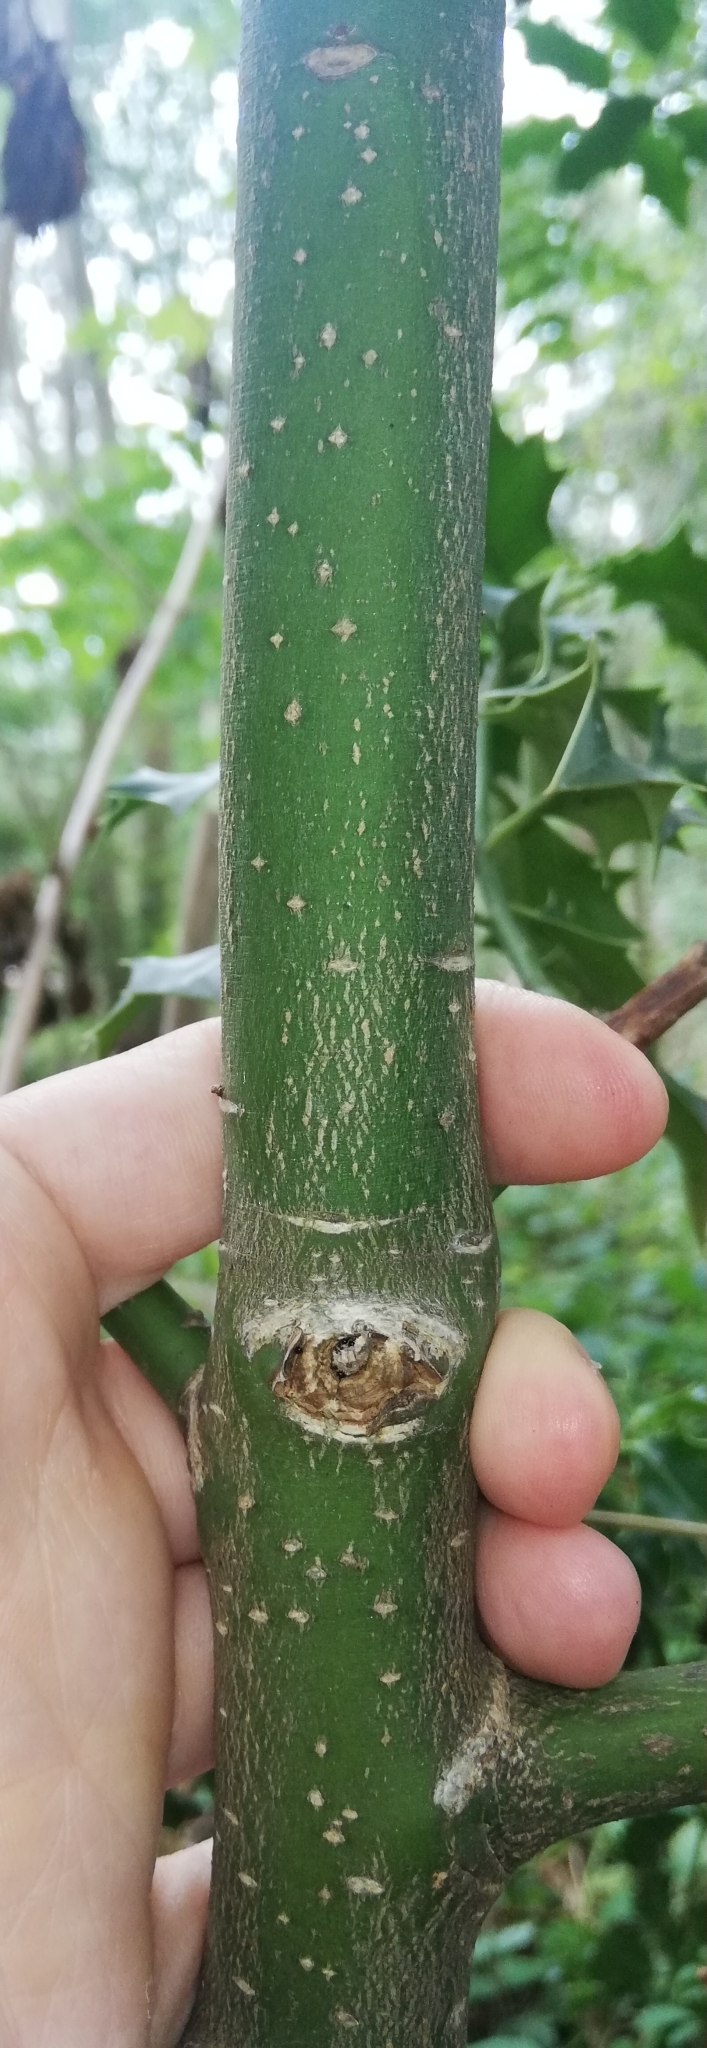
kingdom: Plantae
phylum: Tracheophyta
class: Magnoliopsida
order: Aquifoliales
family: Aquifoliaceae
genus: Ilex
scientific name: Ilex aquifolium
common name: English holly
